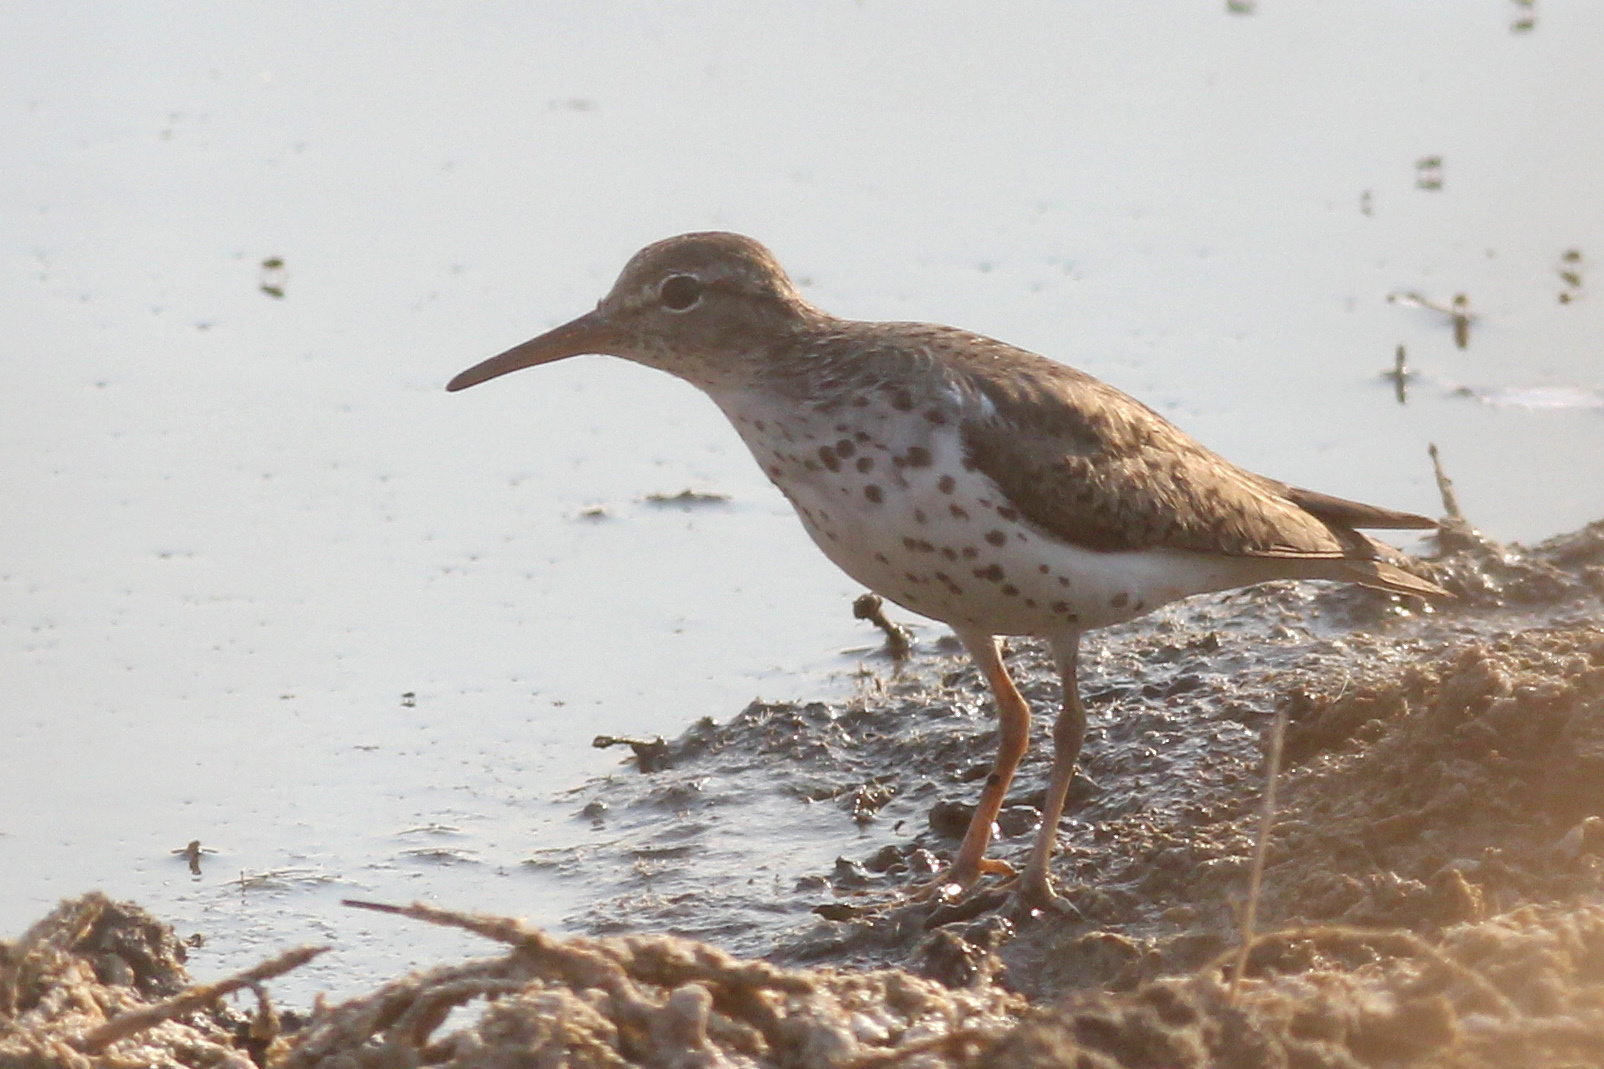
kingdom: Animalia
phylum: Chordata
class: Aves
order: Charadriiformes
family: Scolopacidae
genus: Actitis
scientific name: Actitis macularius
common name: Spotted sandpiper
